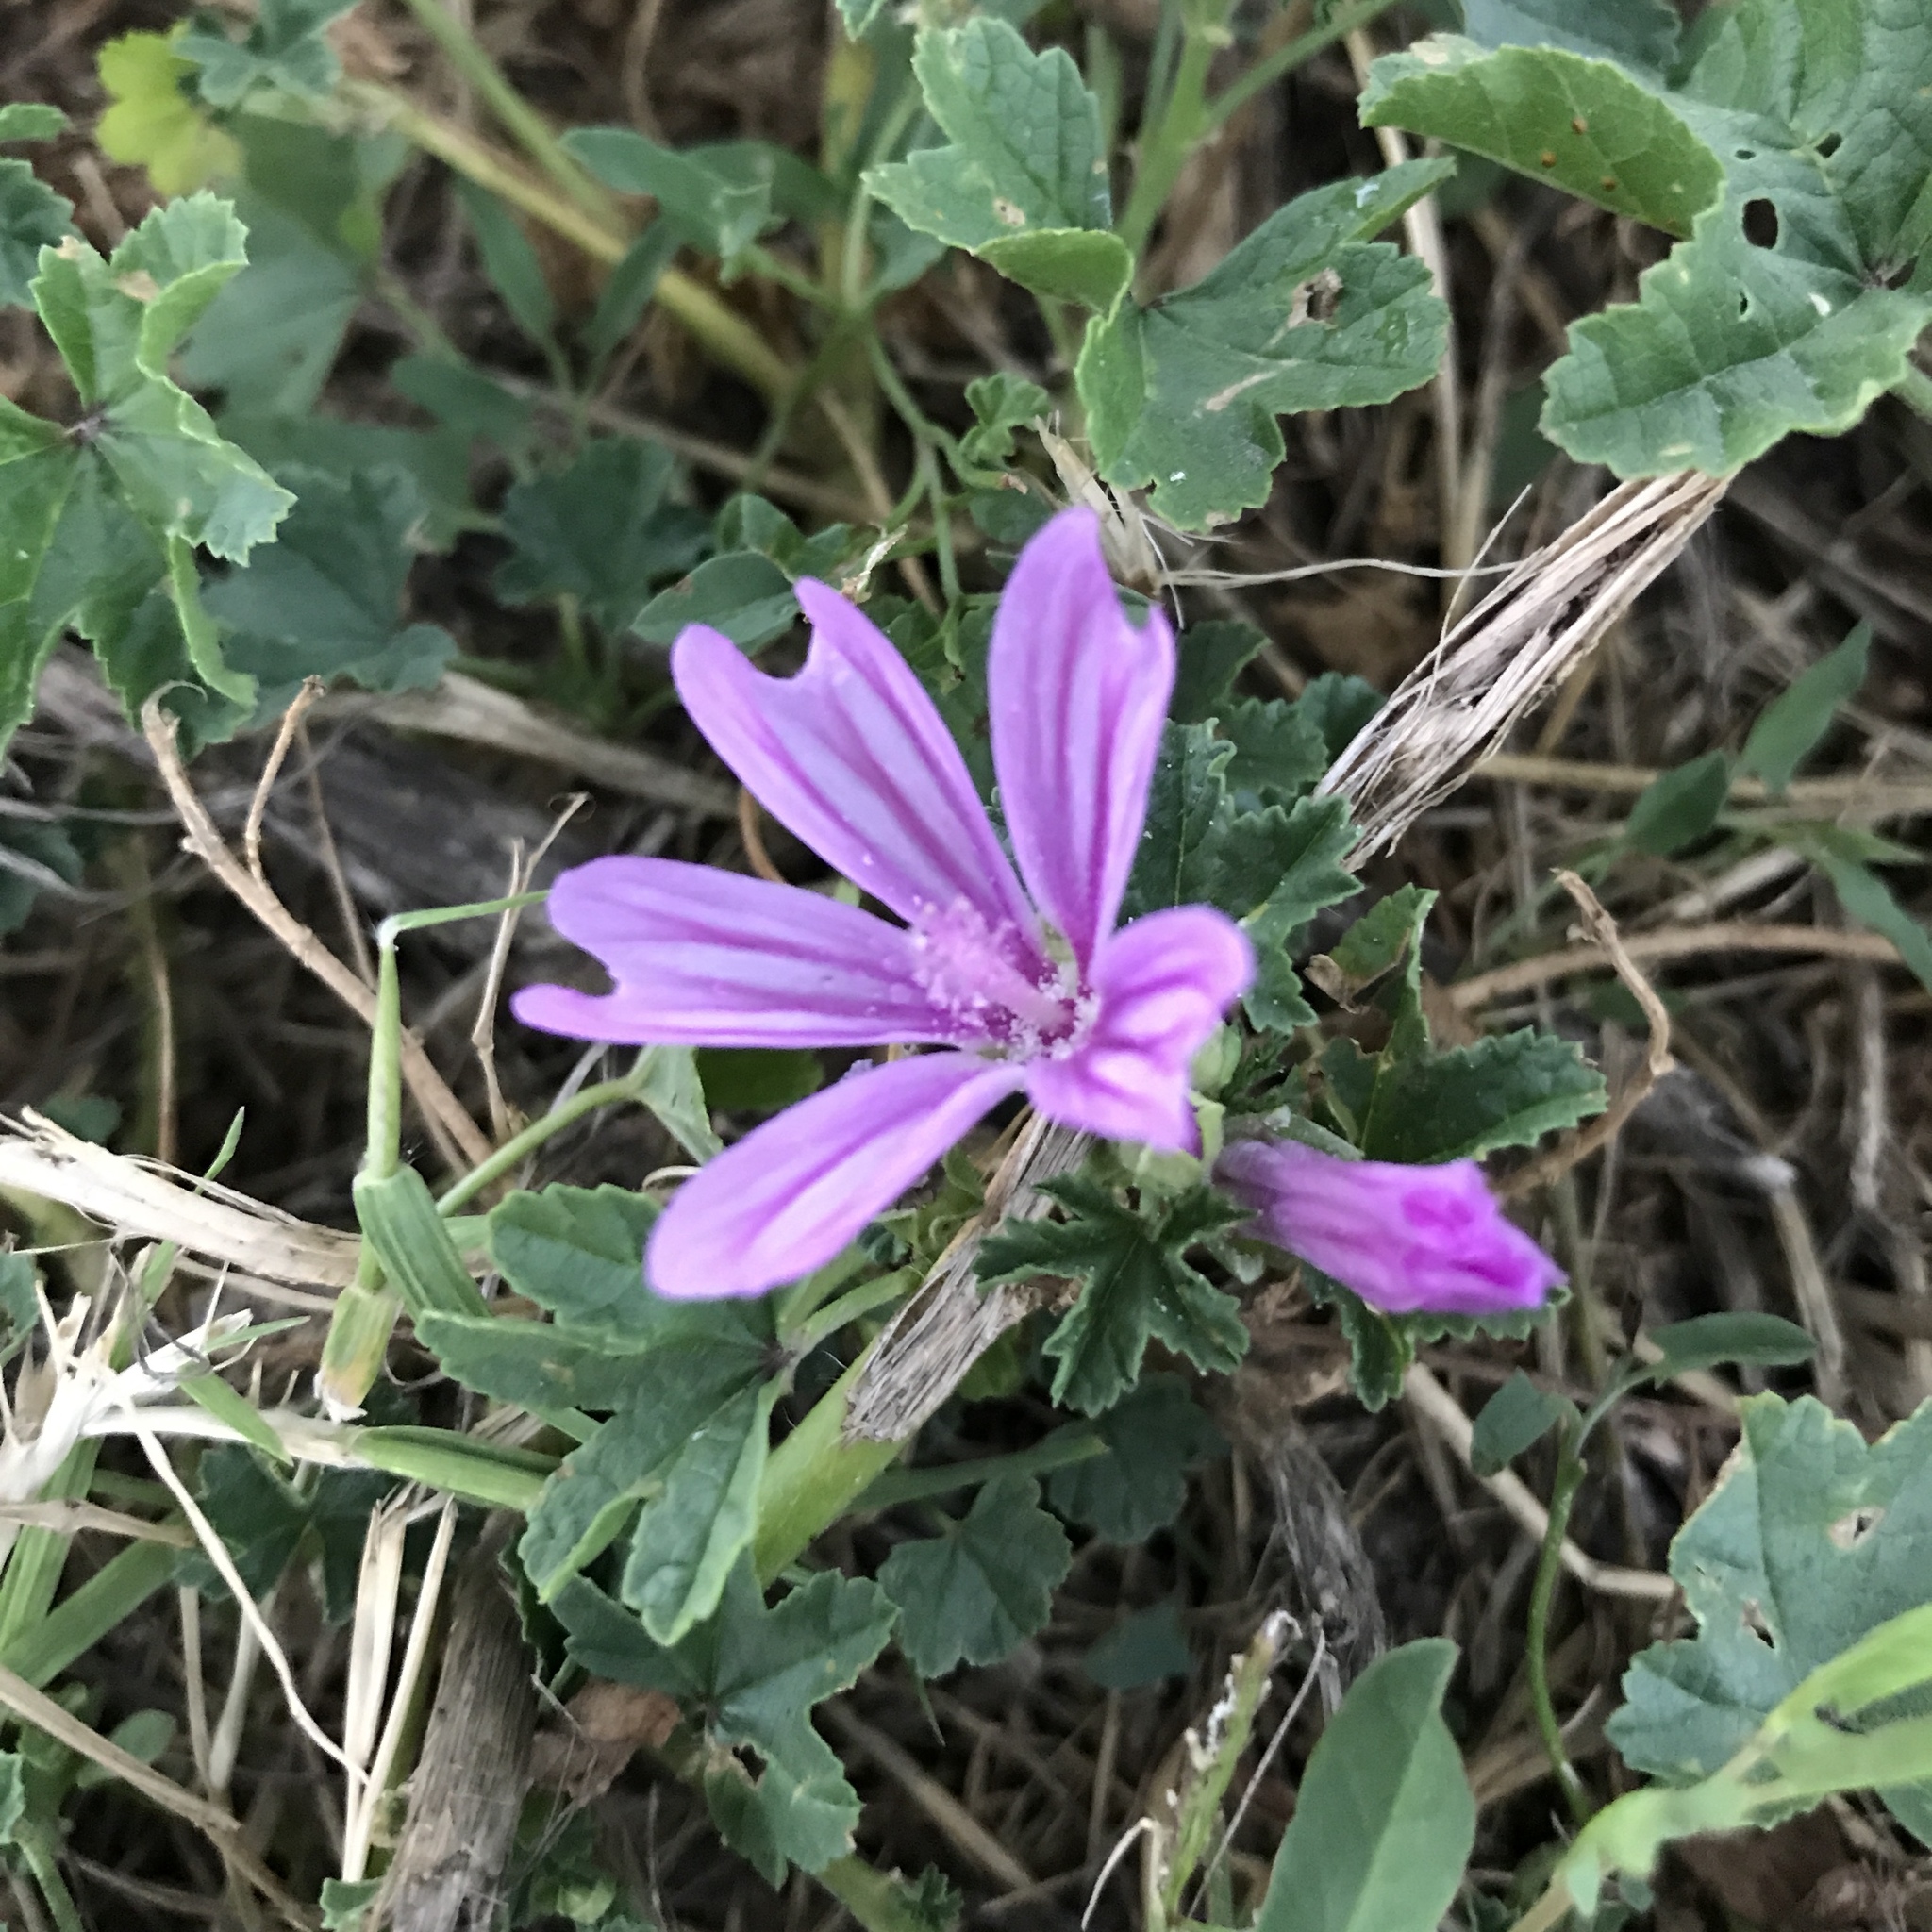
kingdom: Plantae
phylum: Tracheophyta
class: Magnoliopsida
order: Malvales
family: Malvaceae
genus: Malva
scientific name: Malva sylvestris
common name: Common mallow
